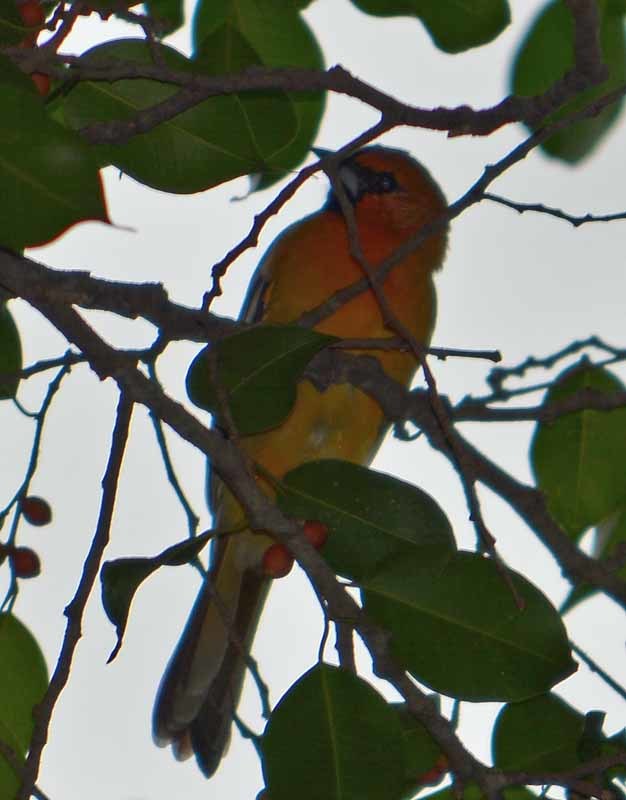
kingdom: Animalia
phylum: Chordata
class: Aves
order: Passeriformes
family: Icteridae
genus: Icterus
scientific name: Icterus pustulatus
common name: Streak-backed oriole
